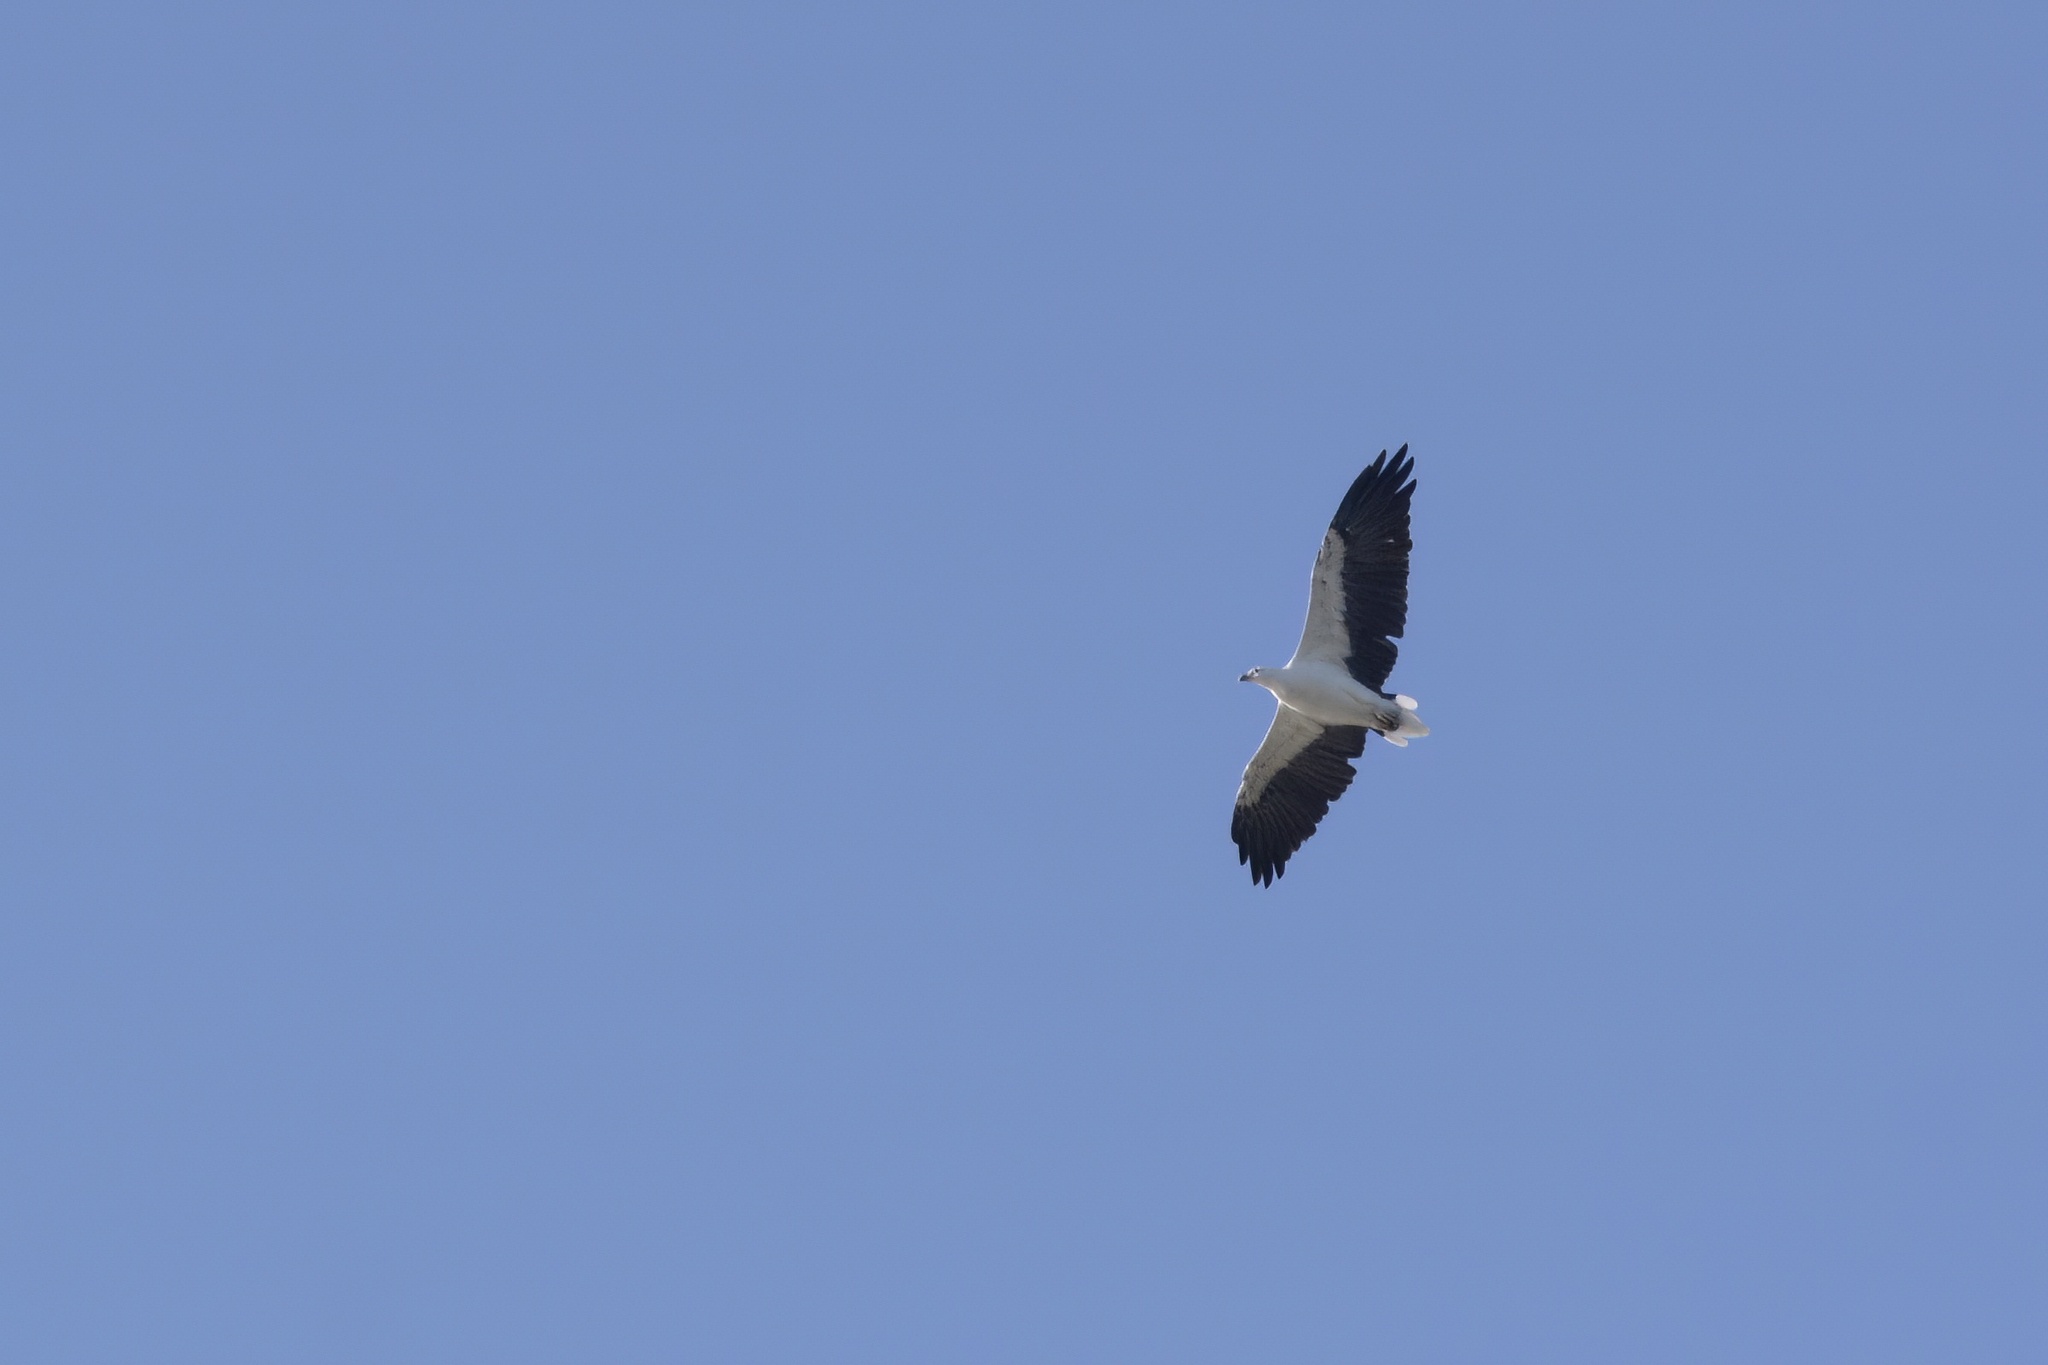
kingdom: Animalia
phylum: Chordata
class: Aves
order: Accipitriformes
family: Accipitridae
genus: Haliaeetus
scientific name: Haliaeetus leucogaster
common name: White-bellied sea eagle
